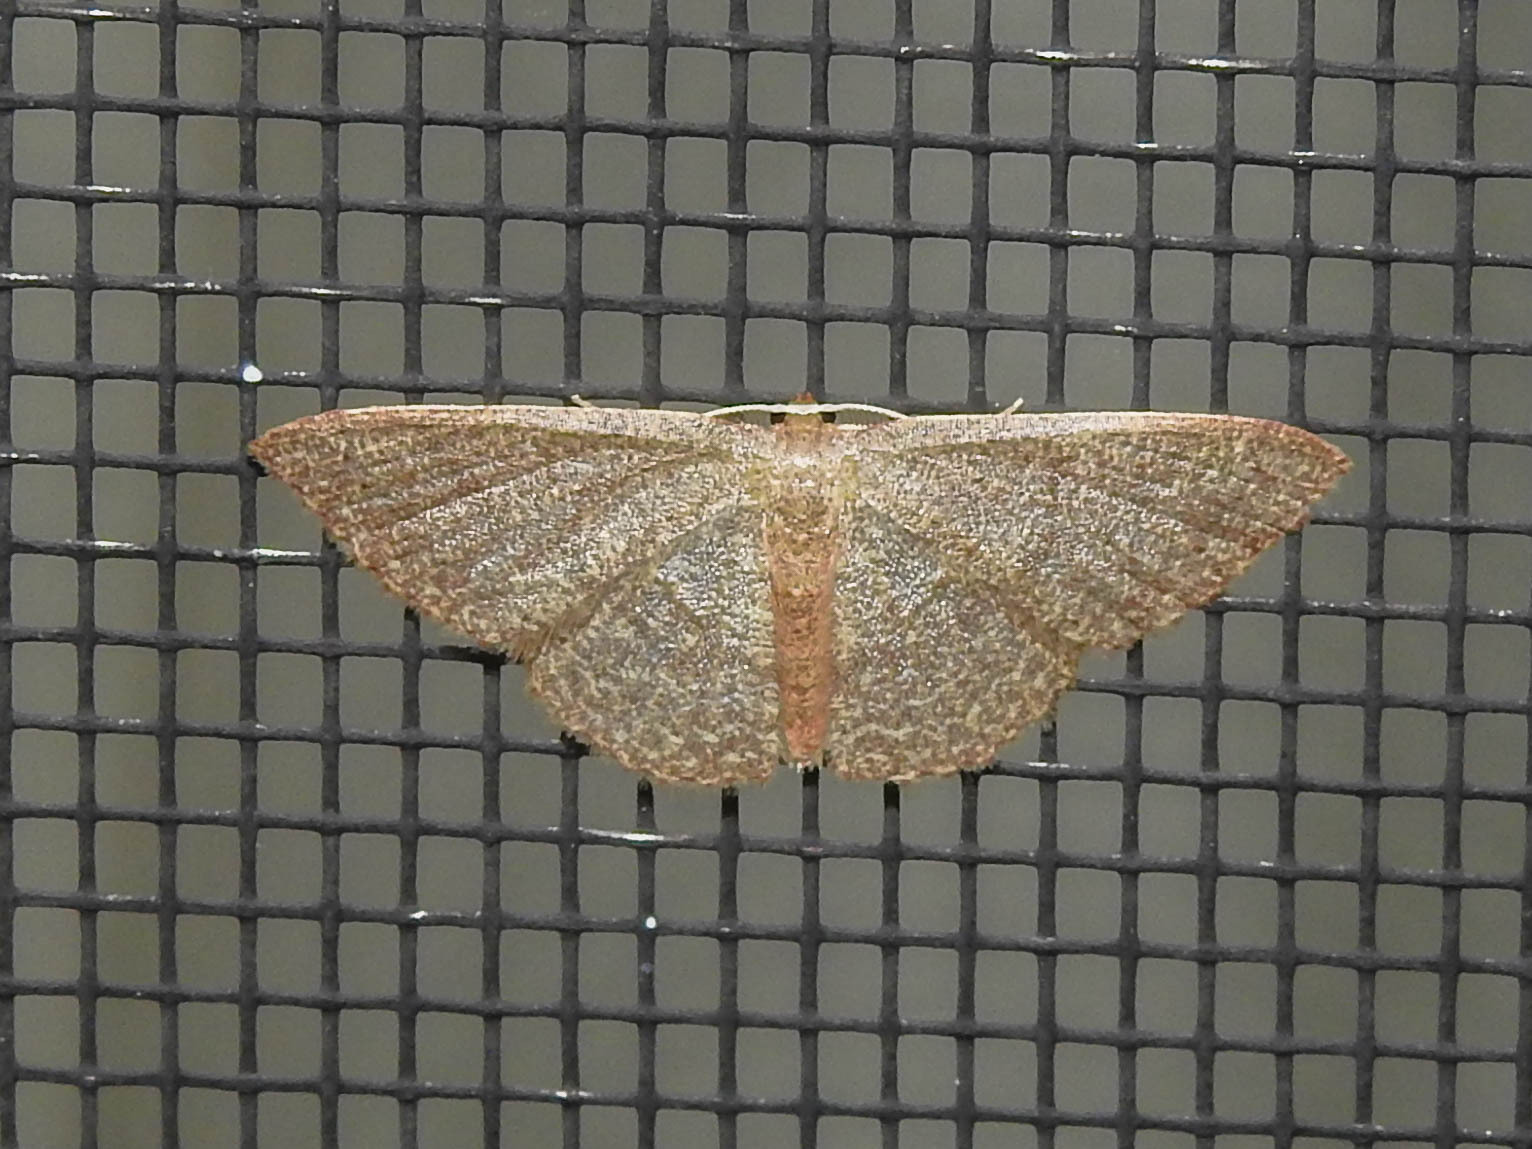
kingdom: Animalia
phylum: Arthropoda
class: Insecta
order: Lepidoptera
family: Geometridae
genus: Pleuroprucha
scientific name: Pleuroprucha insulsaria
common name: Common tan wave
